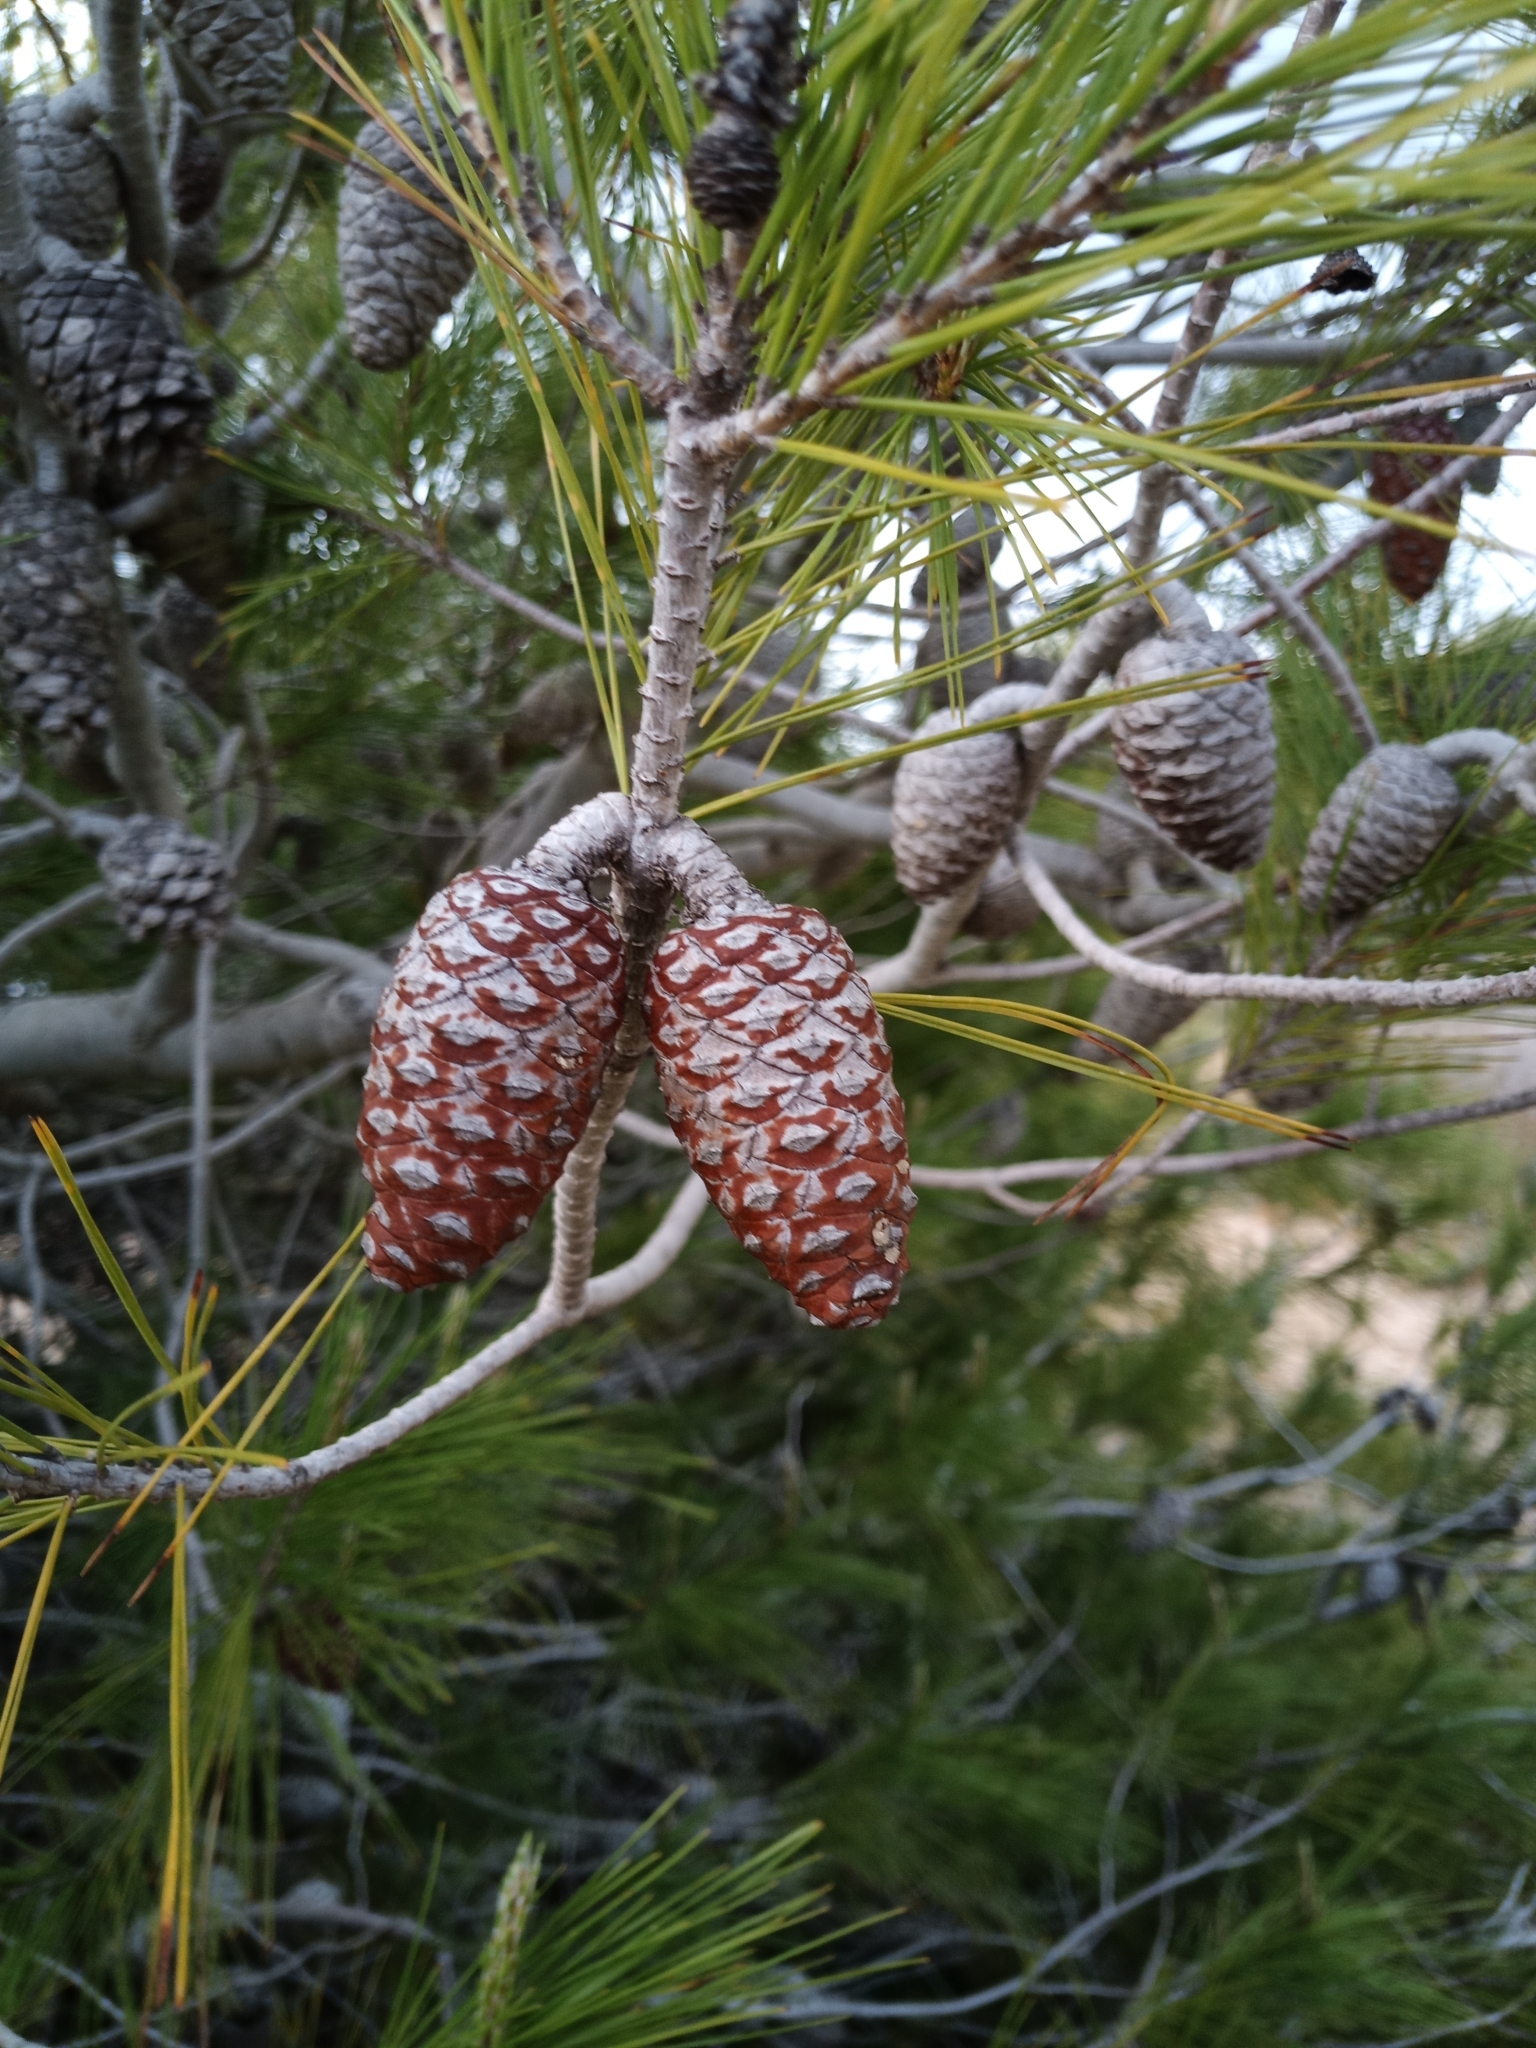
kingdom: Plantae
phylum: Tracheophyta
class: Pinopsida
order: Pinales
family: Pinaceae
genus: Pinus
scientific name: Pinus halepensis
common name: Aleppo pine
